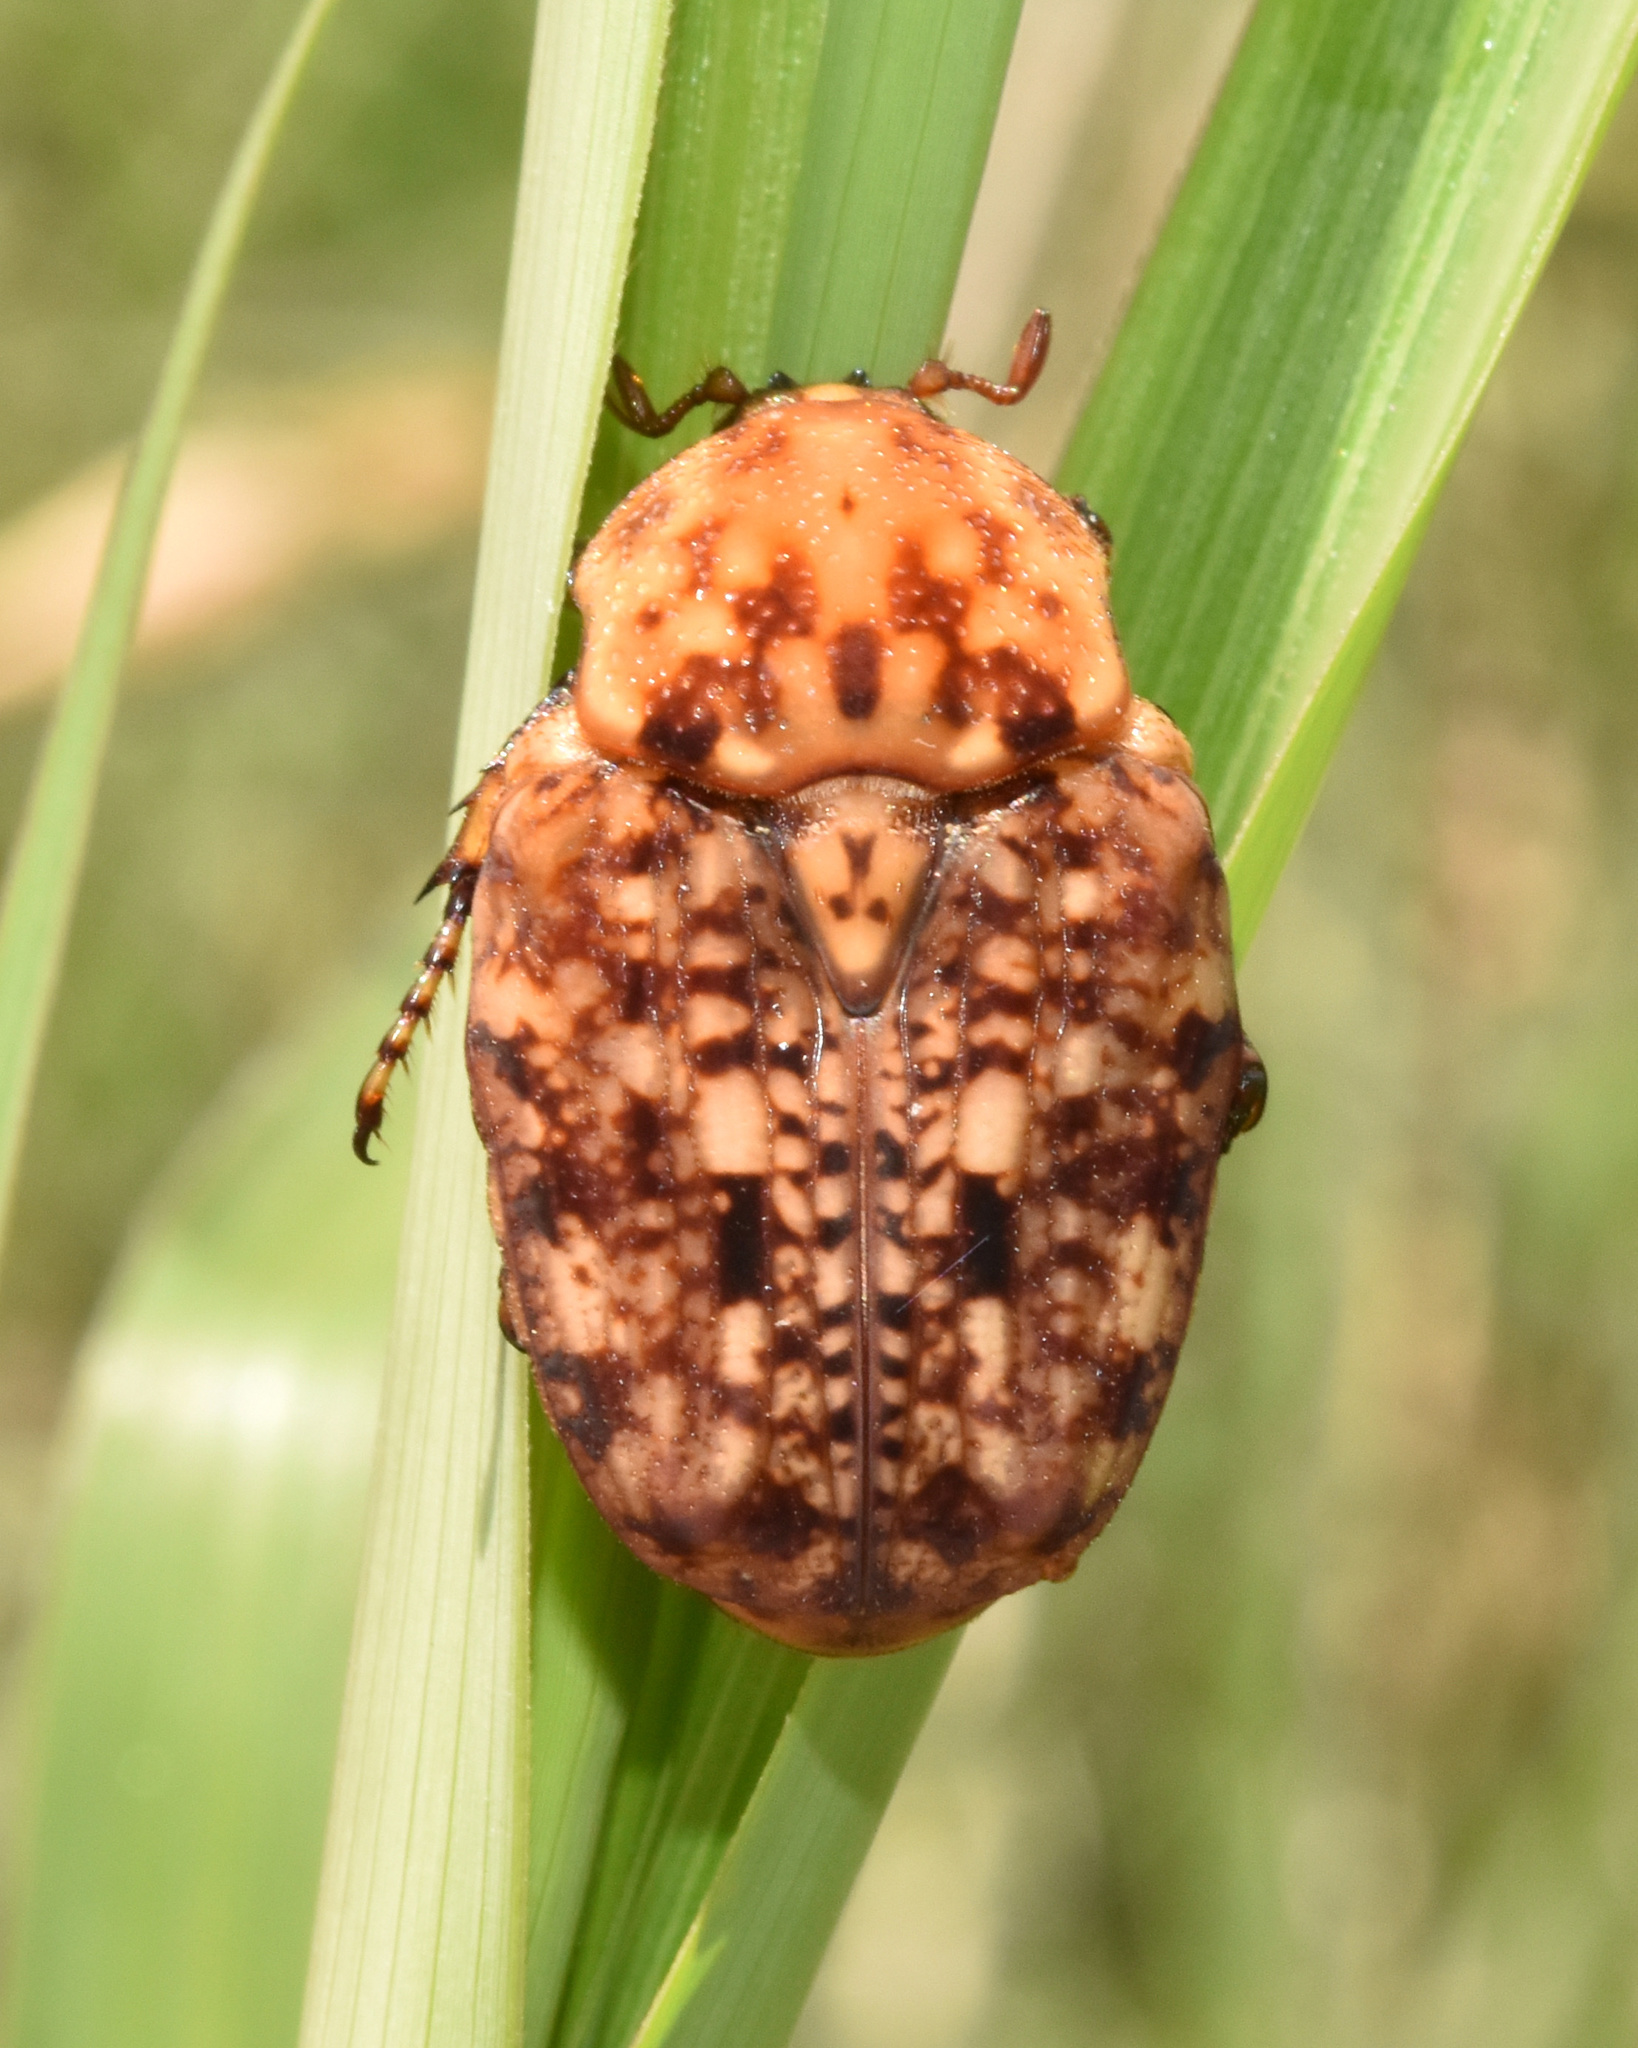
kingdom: Animalia
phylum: Arthropoda
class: Insecta
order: Coleoptera
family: Scarabaeidae
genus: Porphyronota
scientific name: Porphyronota hebraea
